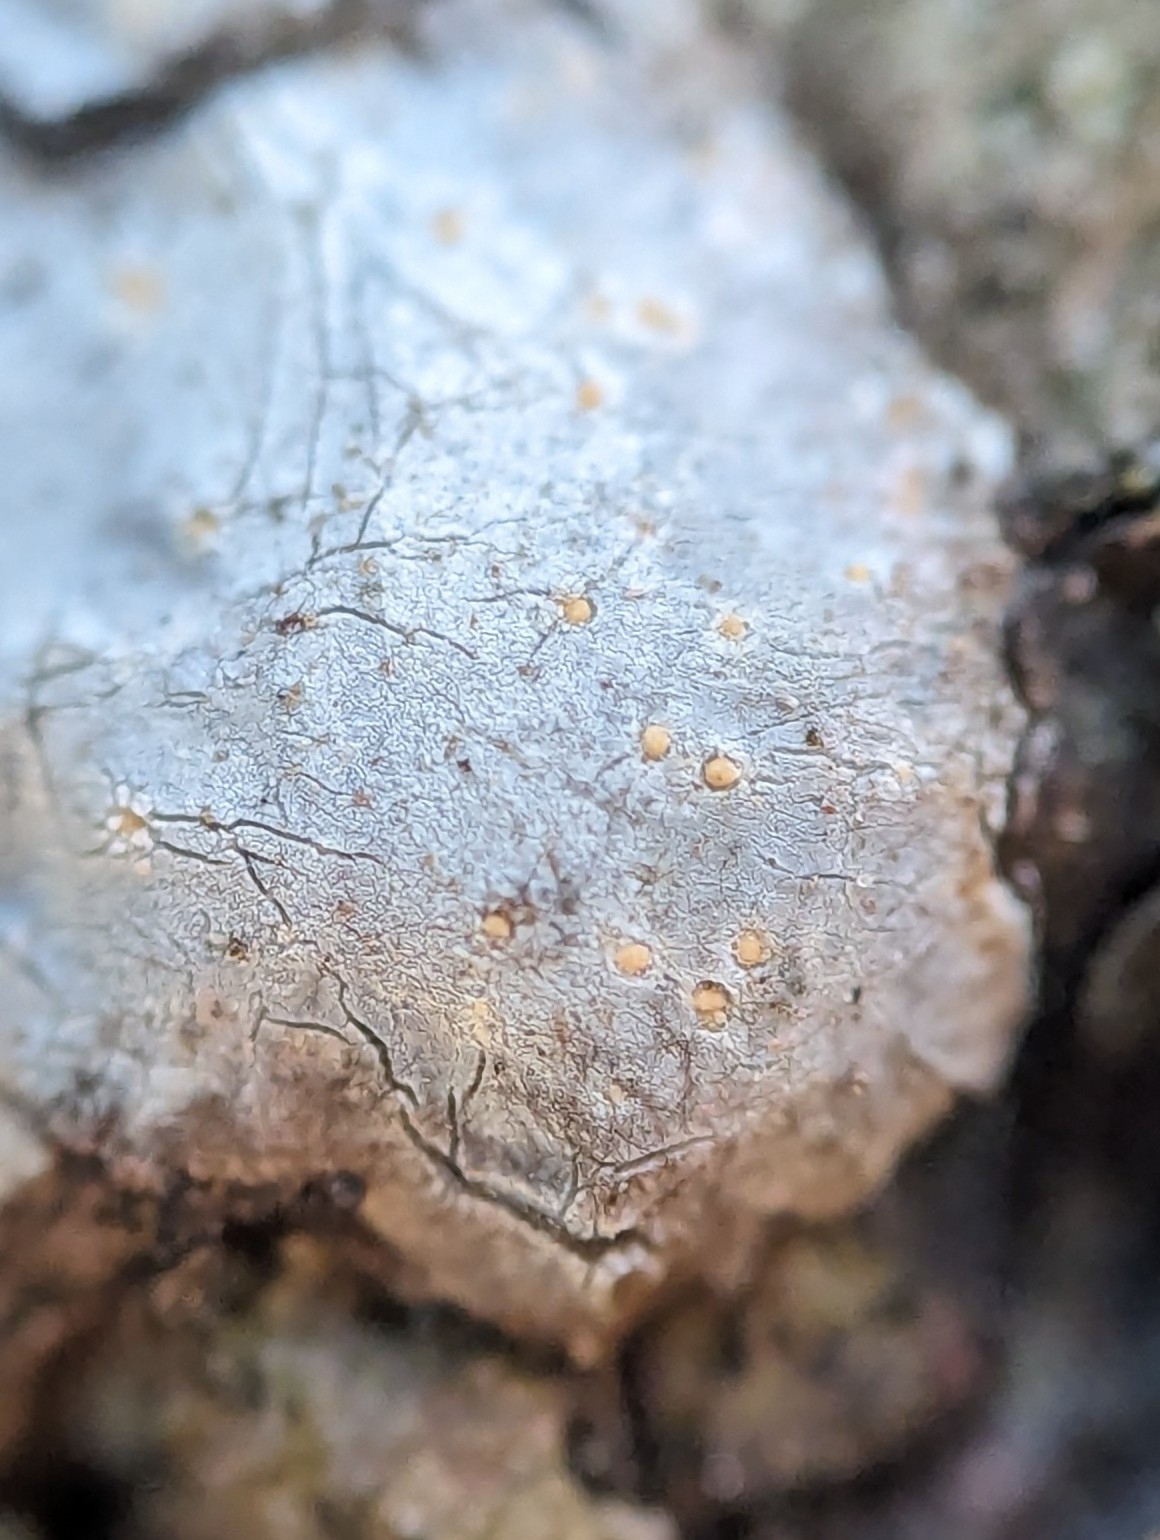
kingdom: Fungi
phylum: Ascomycota
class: Sareomycetes
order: Sareales
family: Sareaceae
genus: Sarea
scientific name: Sarea resinae
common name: Sarea lichen
